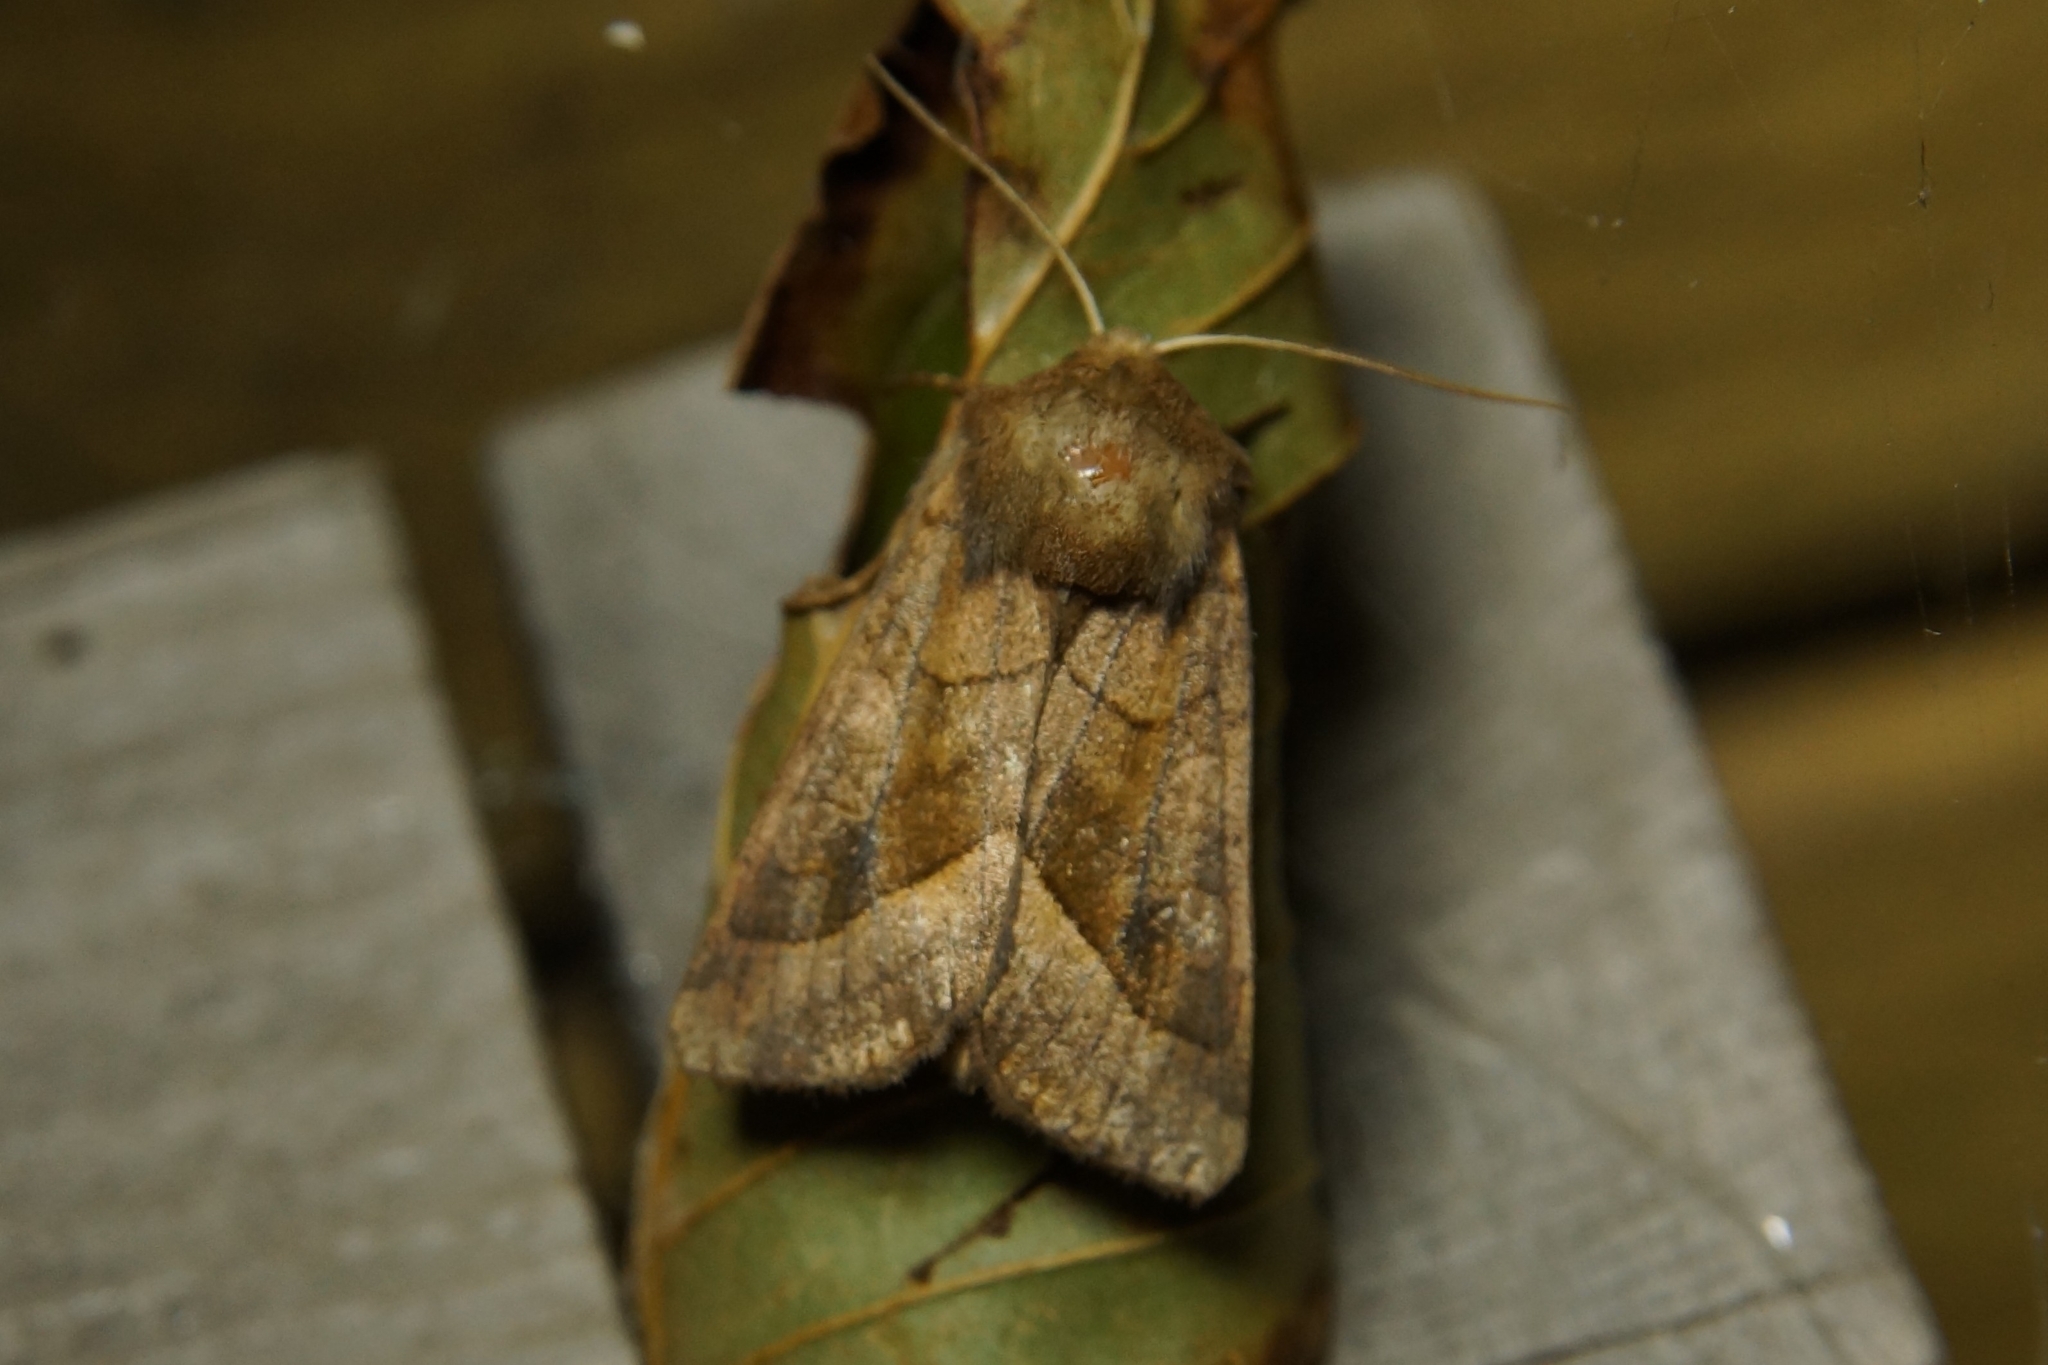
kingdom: Animalia
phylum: Arthropoda
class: Insecta
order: Lepidoptera
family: Noctuidae
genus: Hydraecia
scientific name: Hydraecia micacea
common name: Rosy rustic
